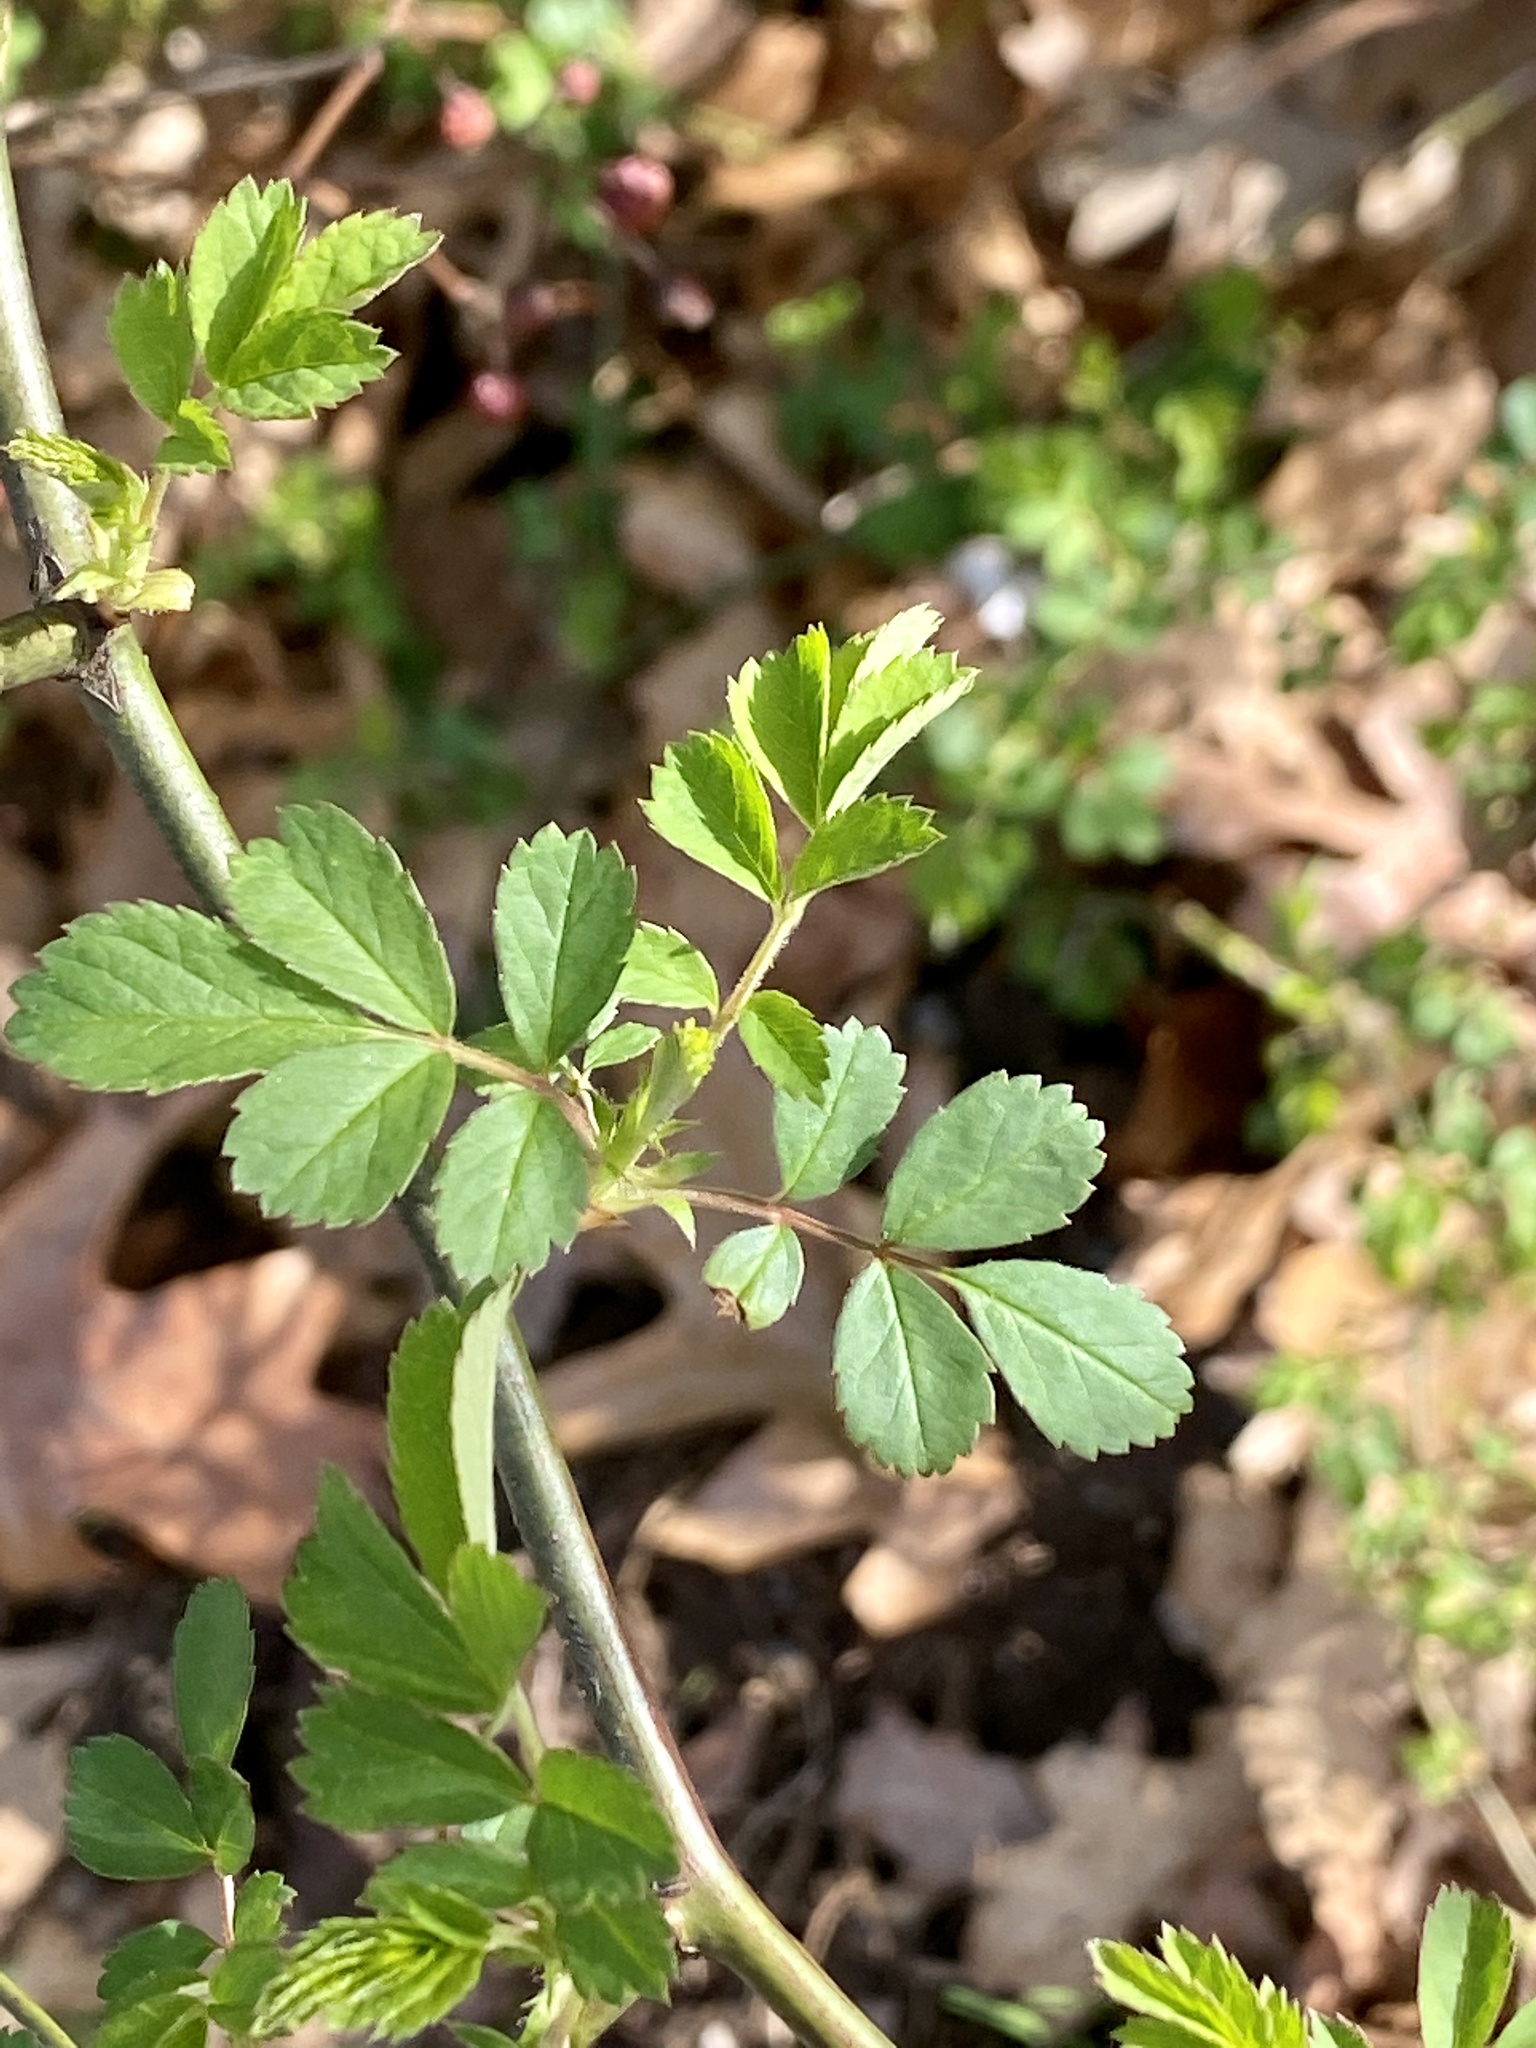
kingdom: Plantae
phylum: Tracheophyta
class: Magnoliopsida
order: Rosales
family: Rosaceae
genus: Rosa
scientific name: Rosa multiflora
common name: Multiflora rose
